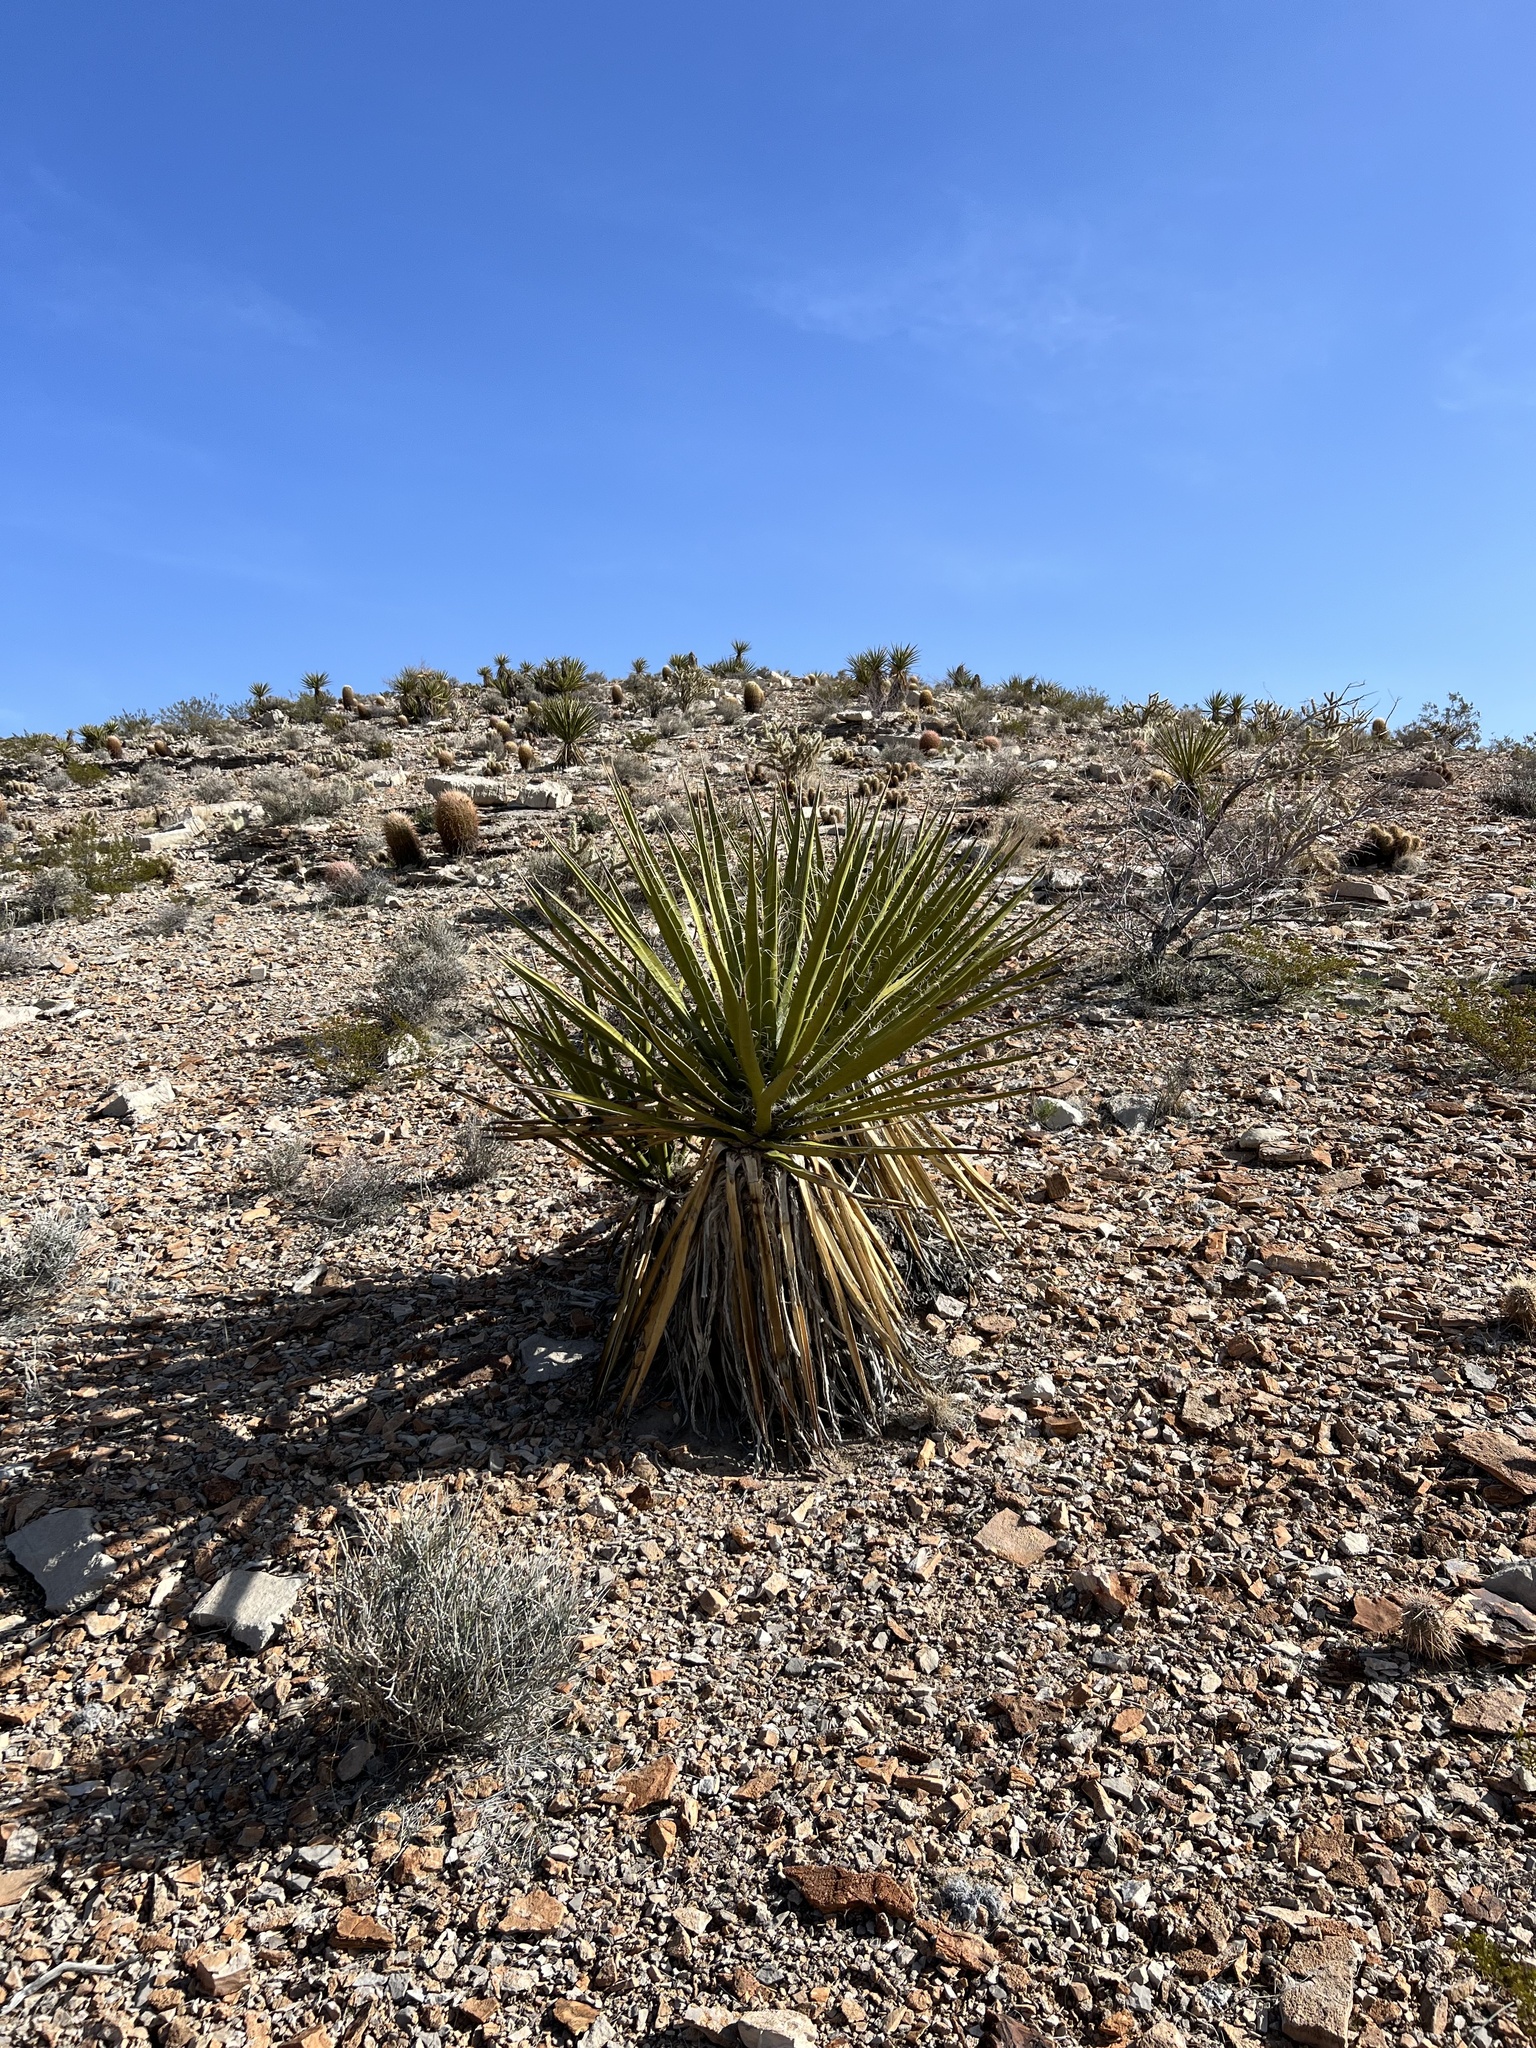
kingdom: Plantae
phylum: Tracheophyta
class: Liliopsida
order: Asparagales
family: Asparagaceae
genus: Yucca
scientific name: Yucca schidigera
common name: Mojave yucca
